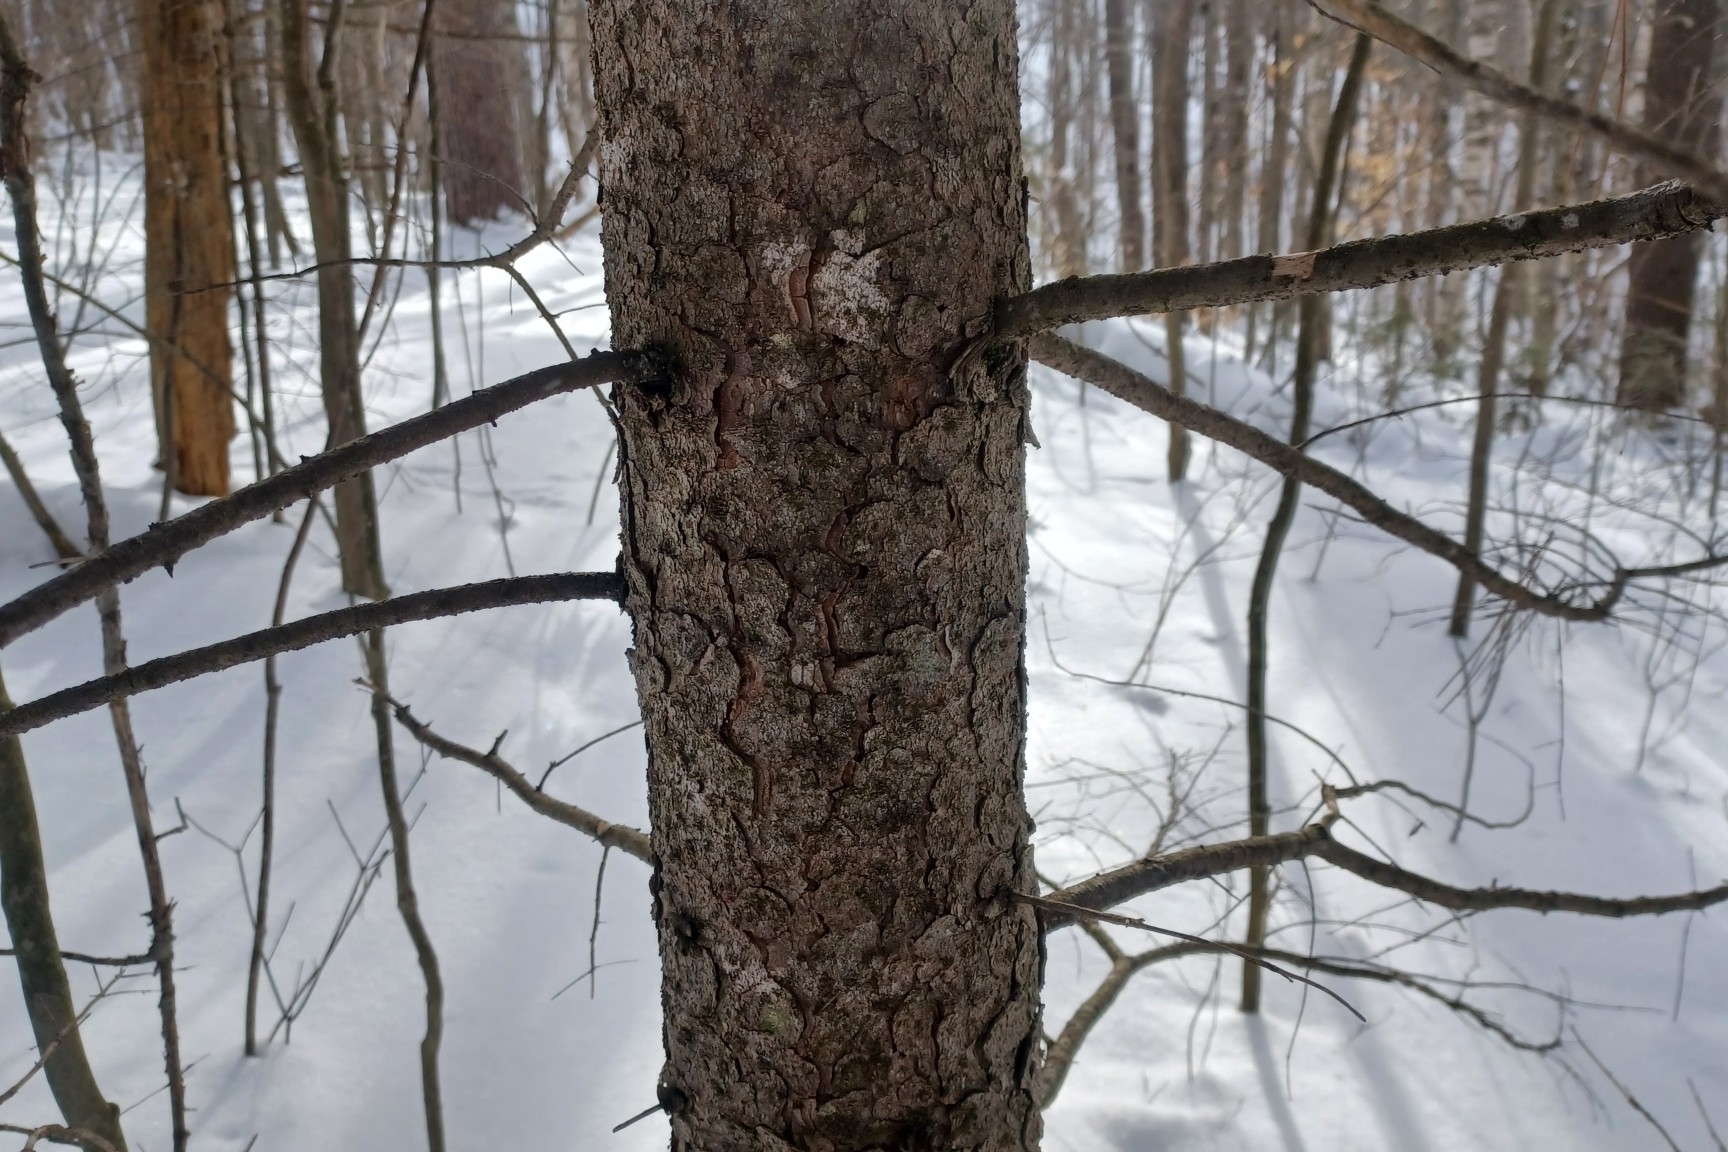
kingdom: Plantae
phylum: Tracheophyta
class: Pinopsida
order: Pinales
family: Pinaceae
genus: Picea
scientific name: Picea rubens
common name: Red spruce
